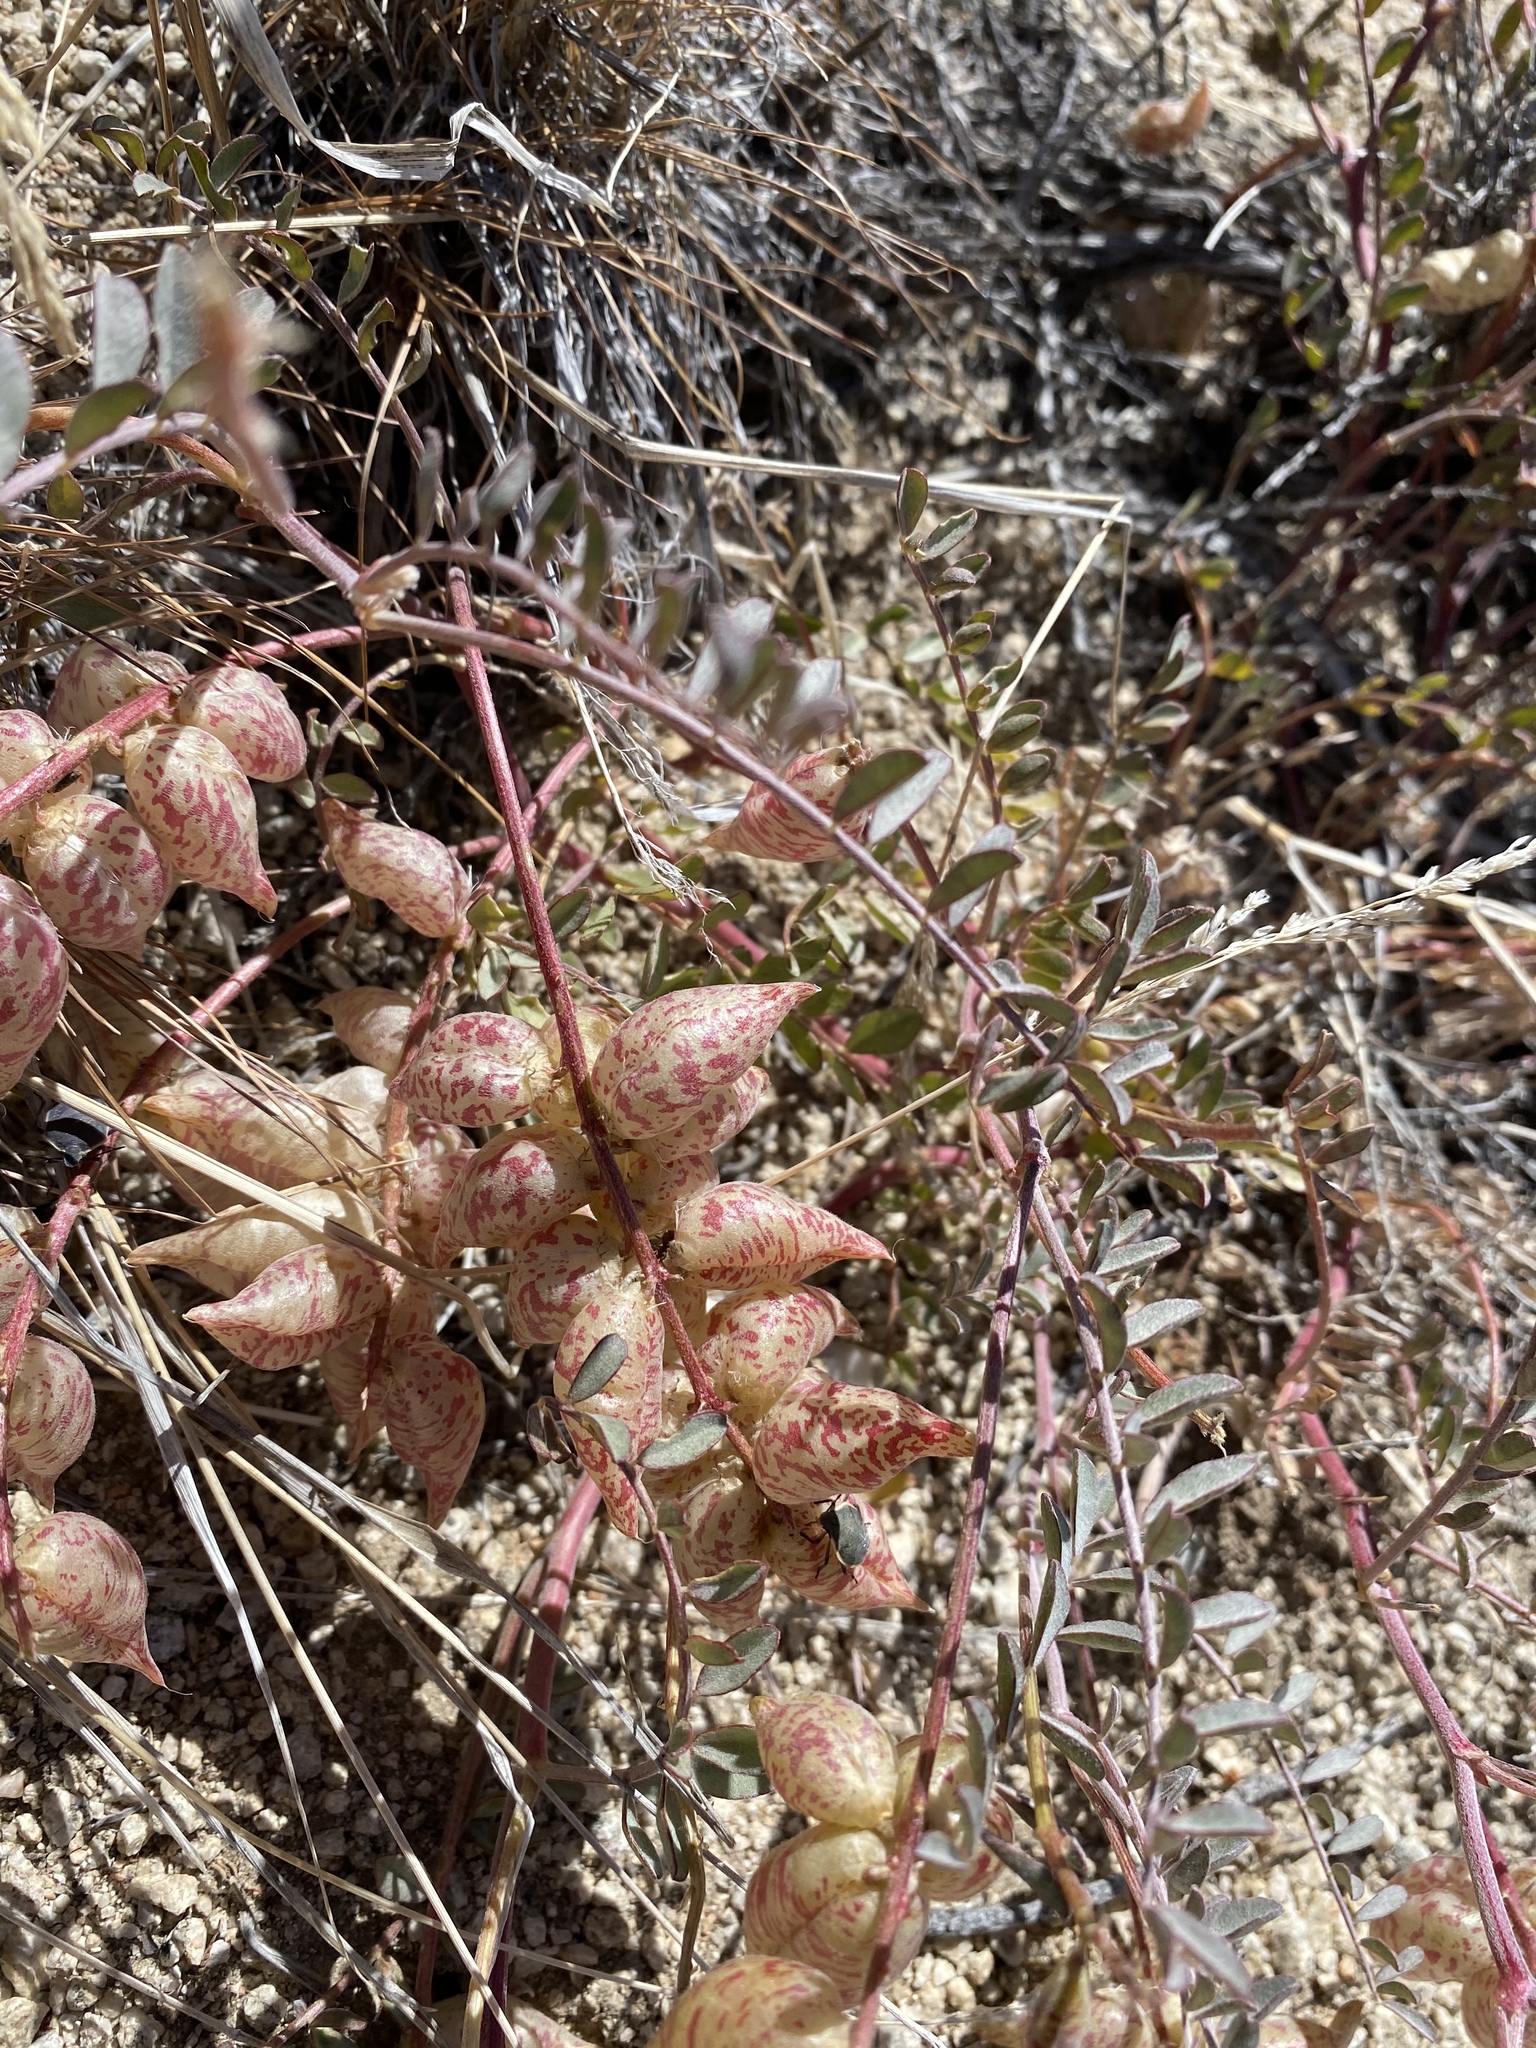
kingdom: Plantae
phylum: Tracheophyta
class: Magnoliopsida
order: Fabales
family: Fabaceae
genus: Astragalus
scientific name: Astragalus lentiginosus
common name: Freckled milkvetch
